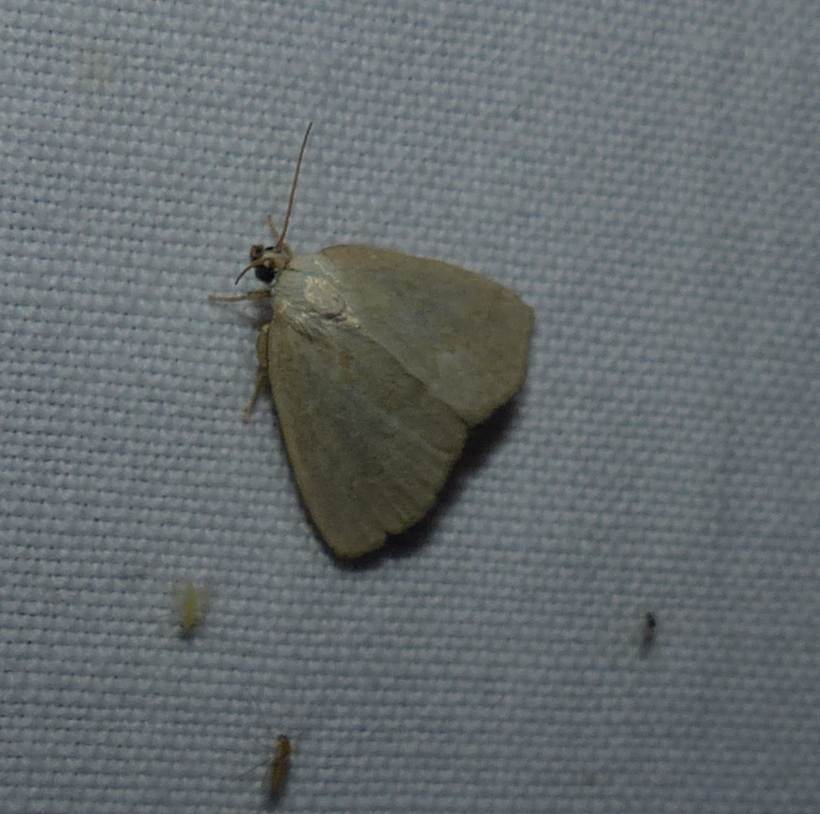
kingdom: Animalia
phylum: Arthropoda
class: Insecta
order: Lepidoptera
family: Noctuidae
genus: Protodeltote
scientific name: Protodeltote albidula
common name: Pale glyph
